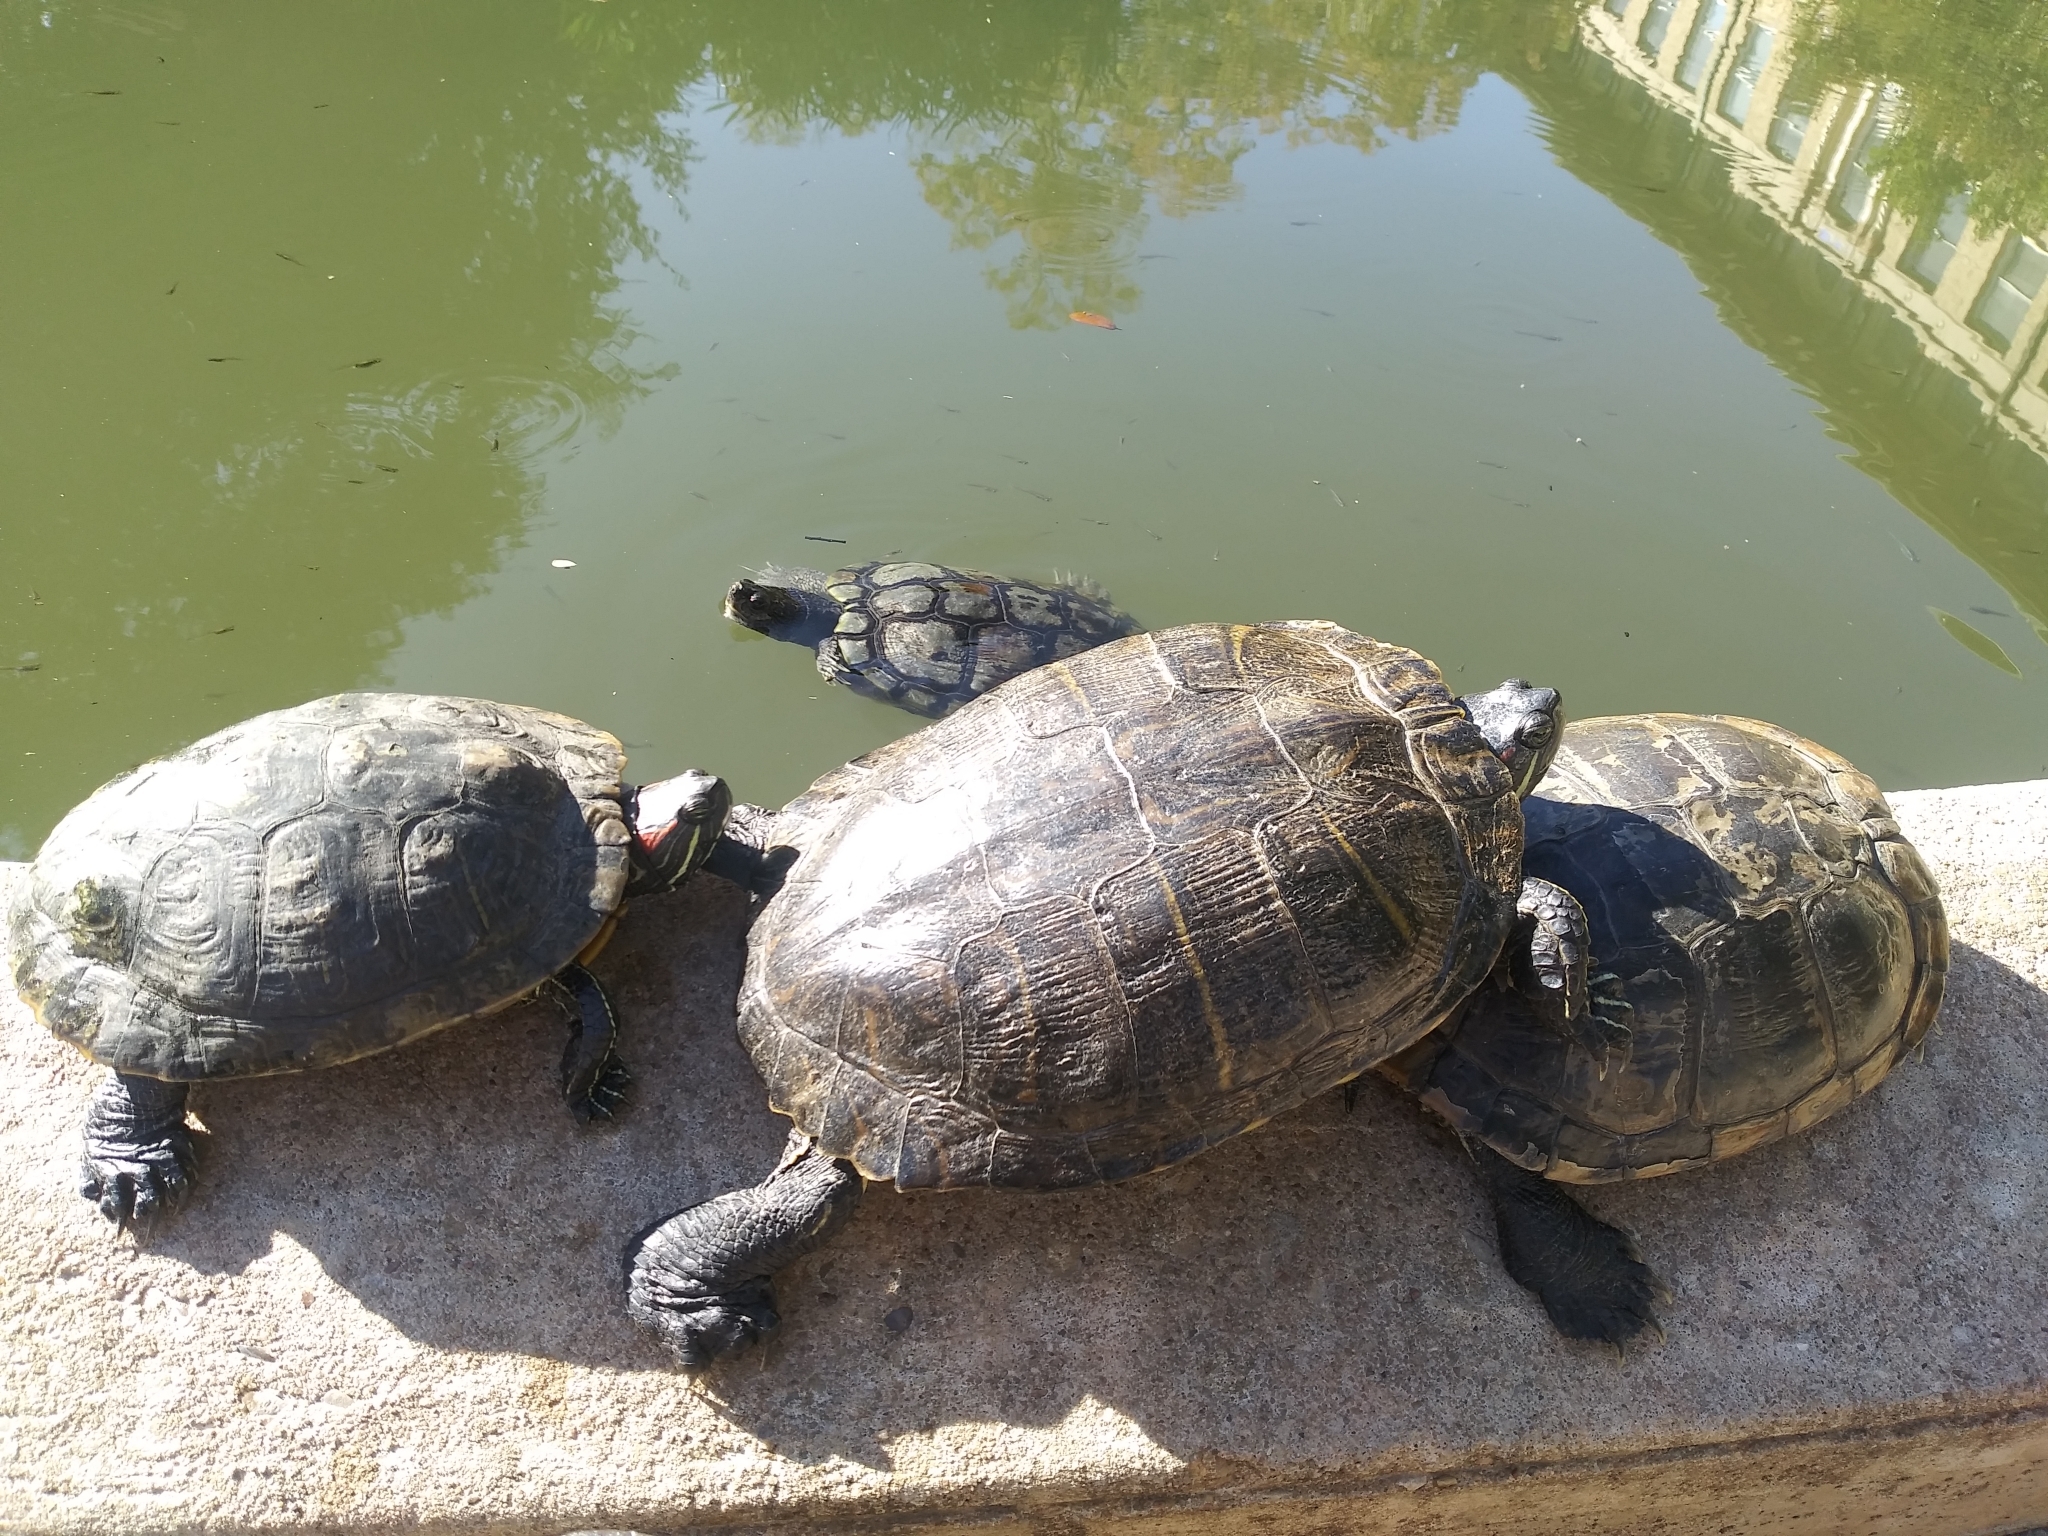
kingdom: Animalia
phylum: Chordata
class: Testudines
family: Emydidae
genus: Trachemys
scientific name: Trachemys scripta
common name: Slider
